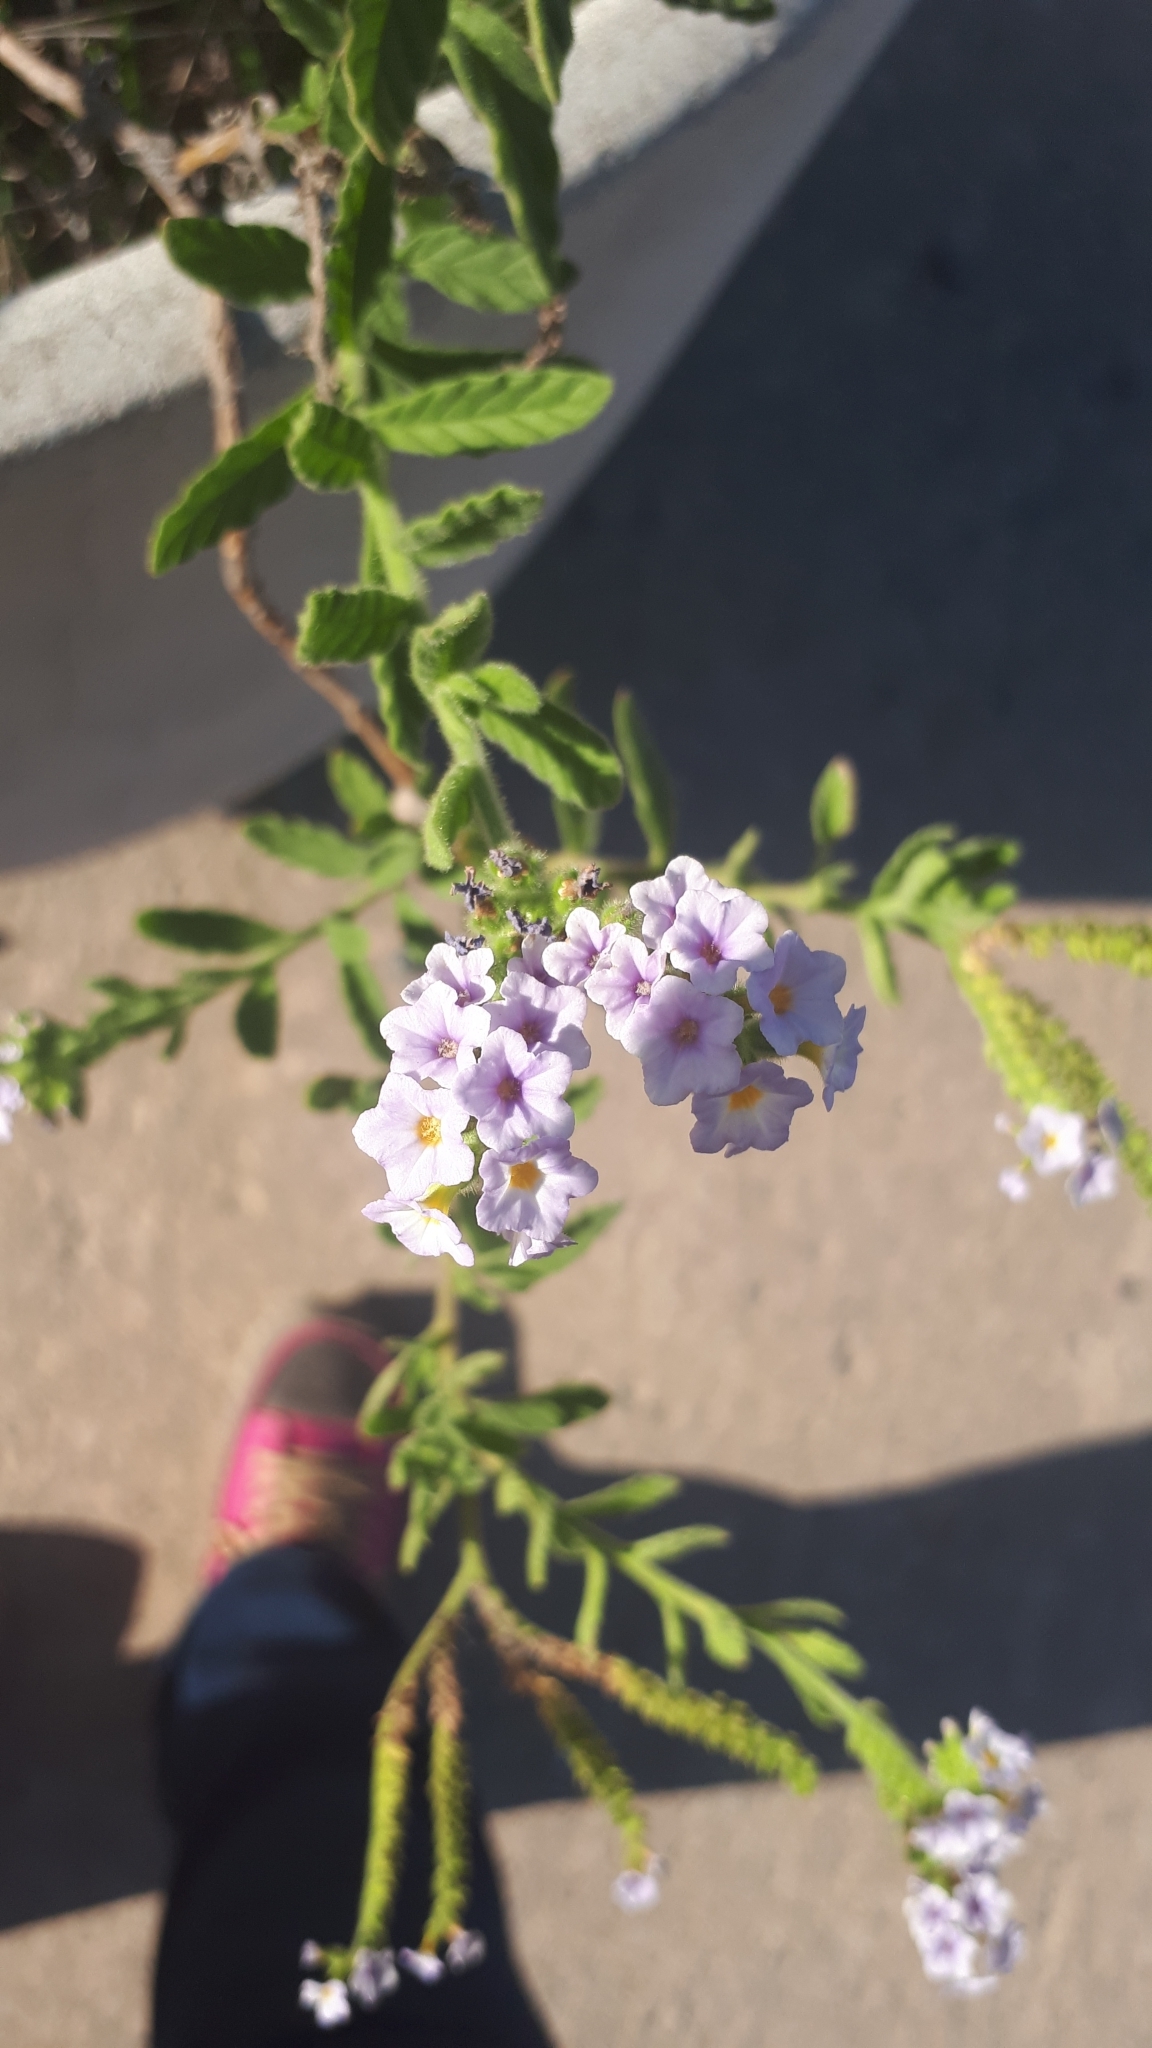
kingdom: Plantae
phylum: Tracheophyta
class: Magnoliopsida
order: Boraginales
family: Heliotropiaceae
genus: Heliotropium
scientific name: Heliotropium amplexicaule
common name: Clasping heliotrope
